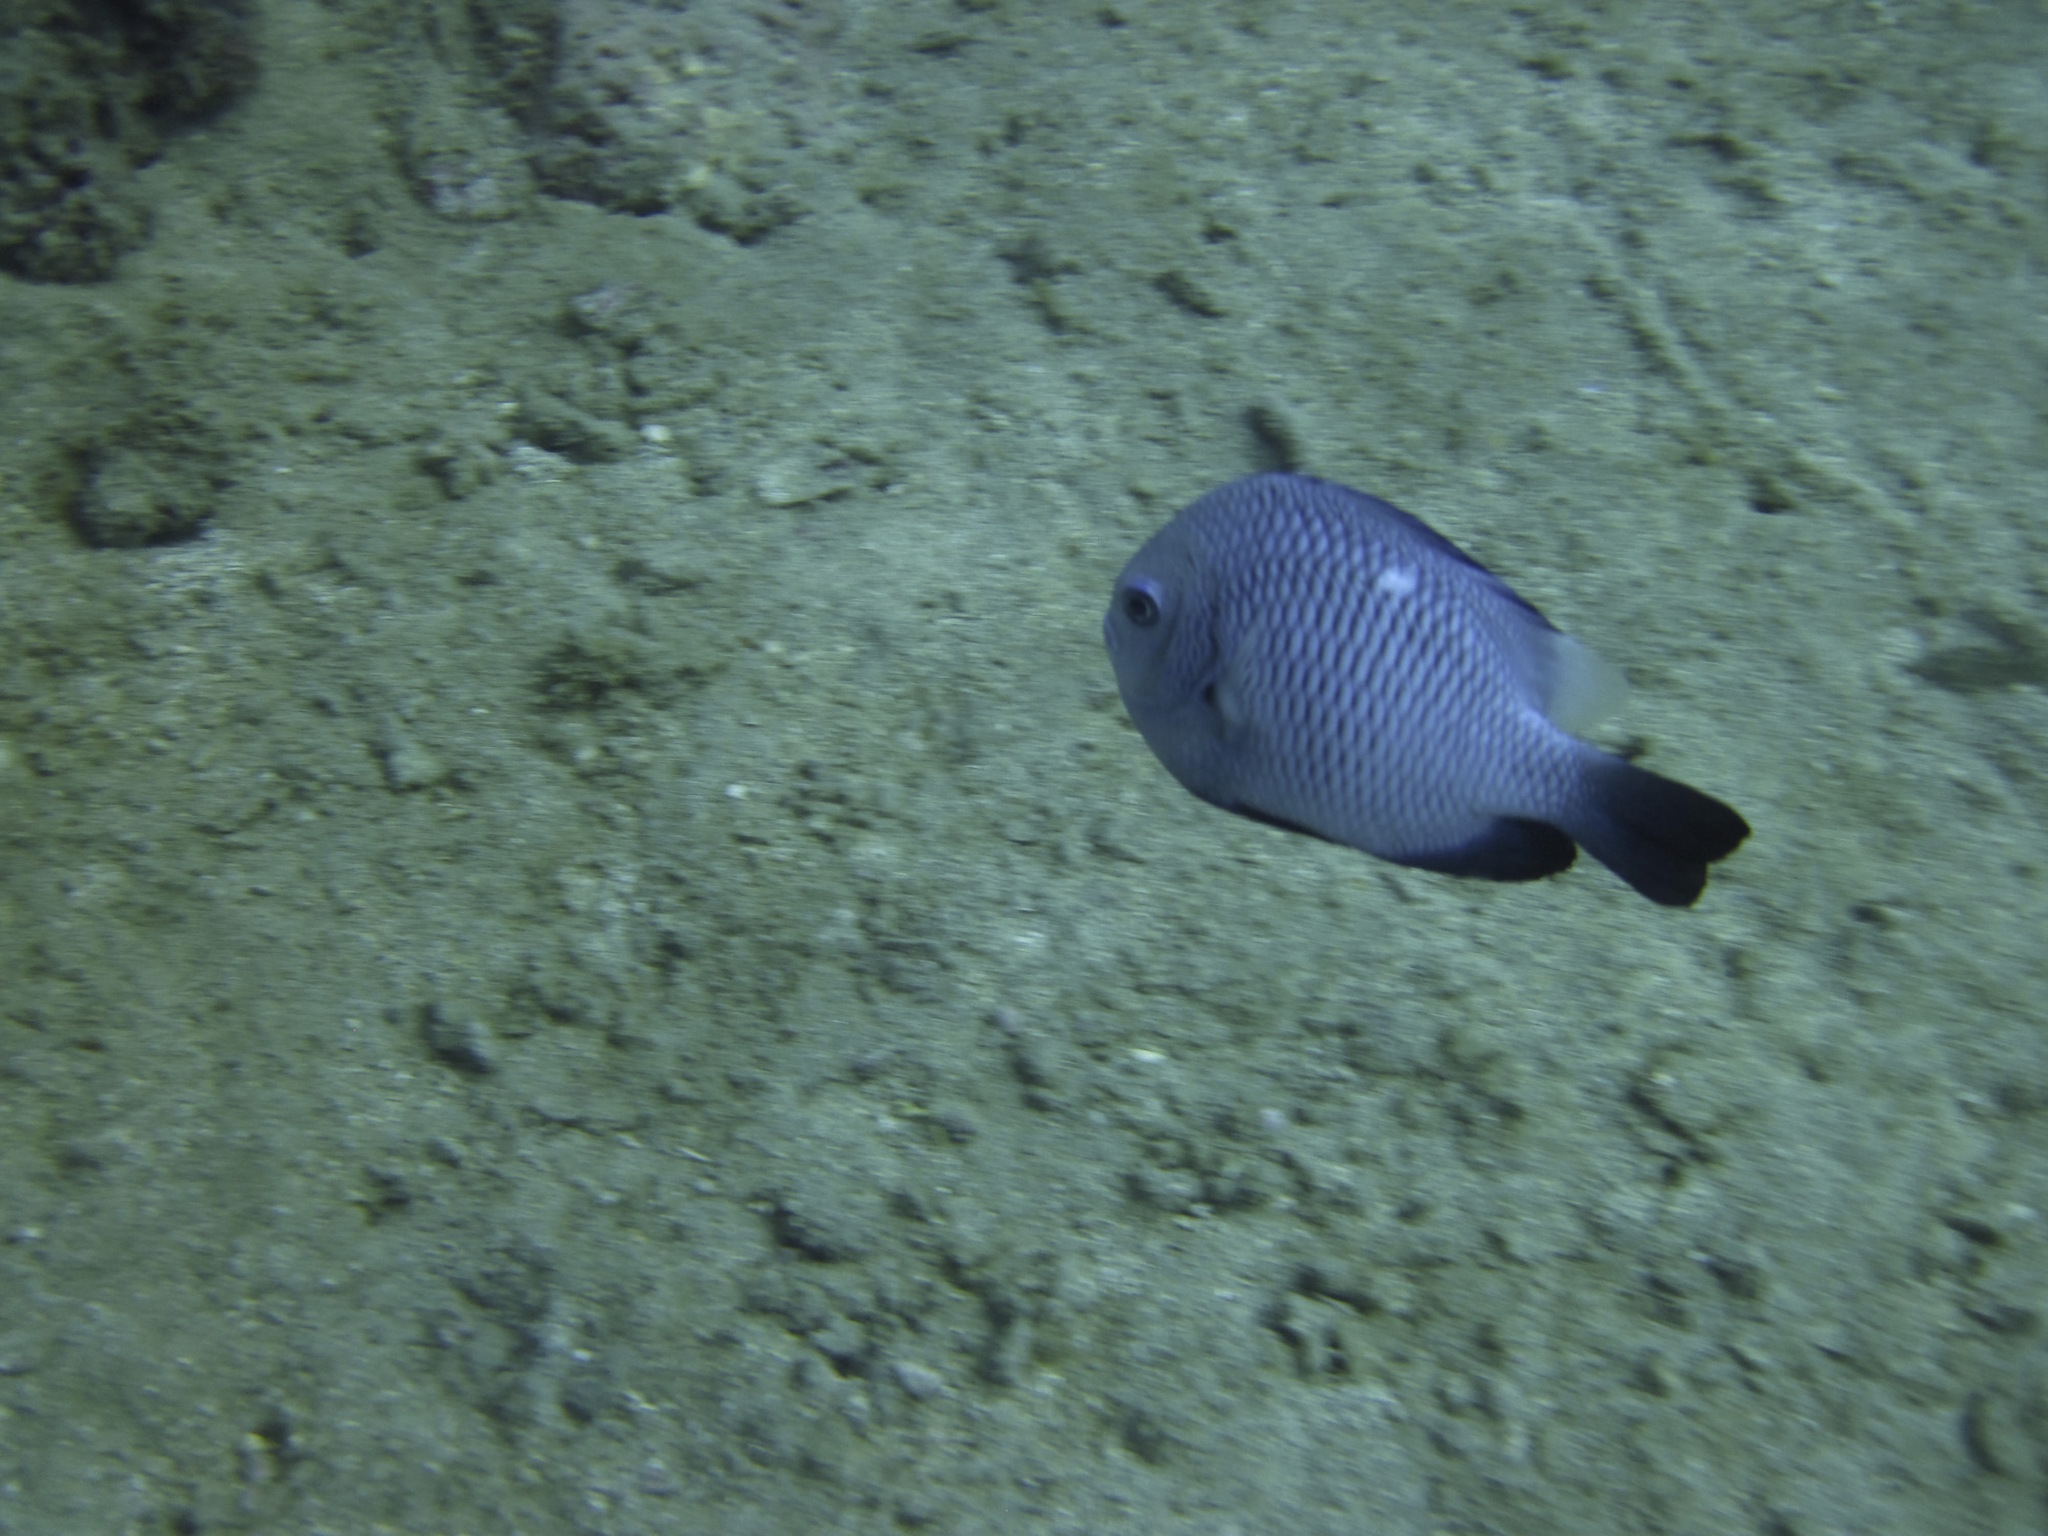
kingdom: Animalia
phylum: Chordata
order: Perciformes
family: Pomacentridae
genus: Dascyllus
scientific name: Dascyllus trimaculatus
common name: Threespot dascyllus
